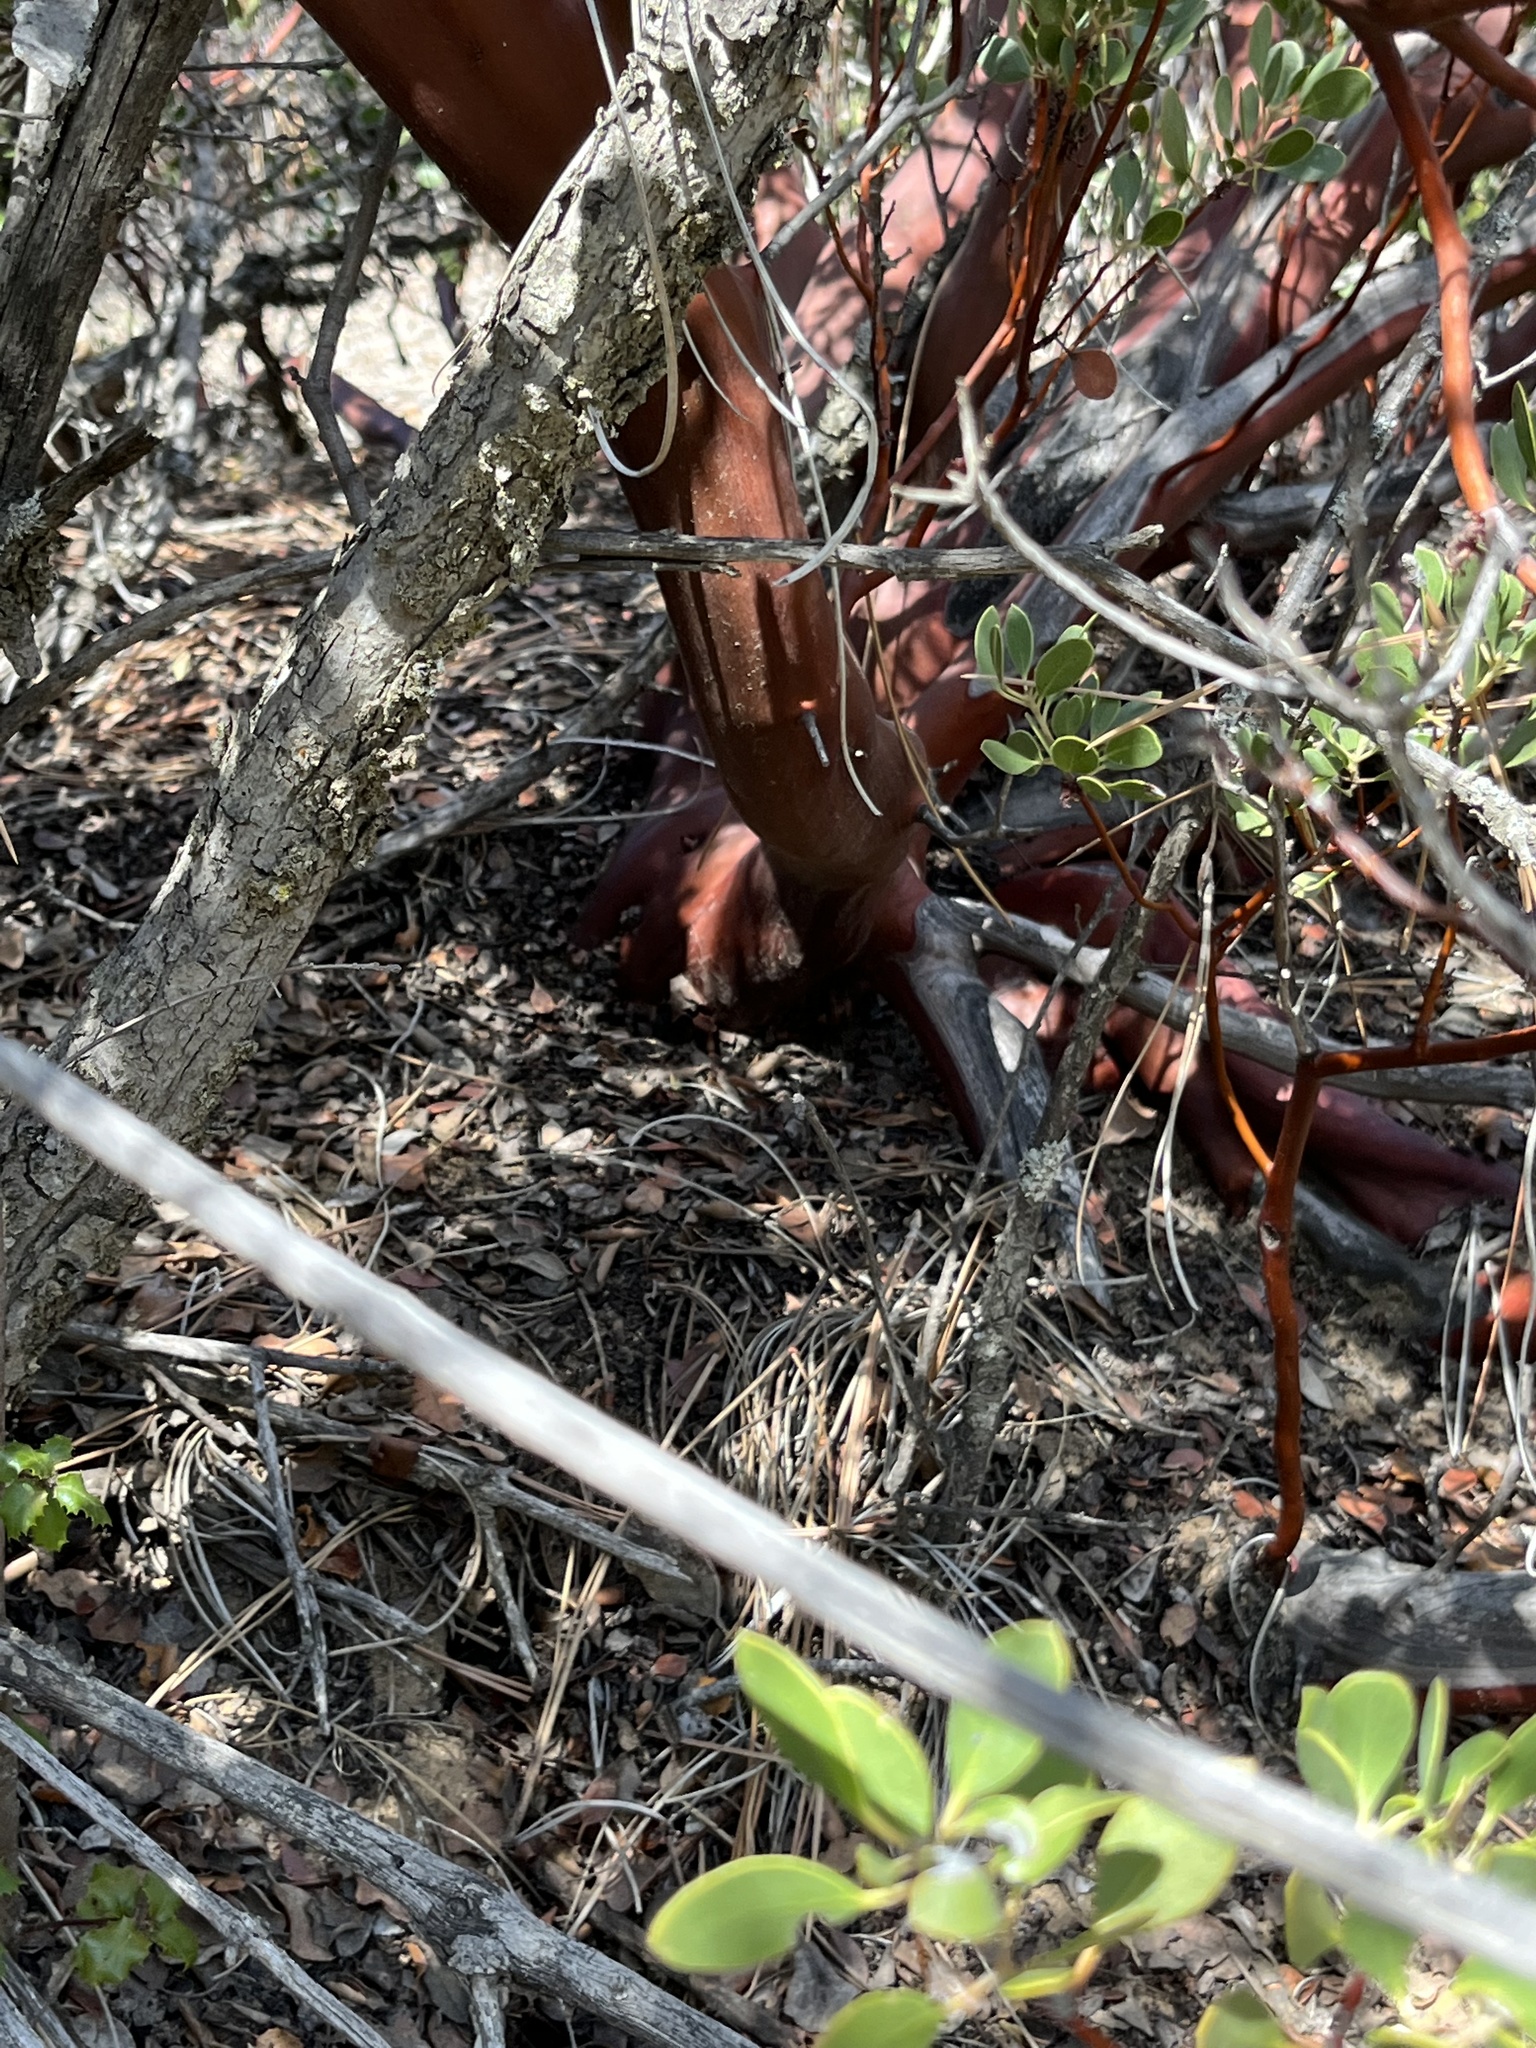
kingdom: Plantae
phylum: Tracheophyta
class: Magnoliopsida
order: Ericales
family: Ericaceae
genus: Arctostaphylos
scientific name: Arctostaphylos pungens
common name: Mexican manzanita
